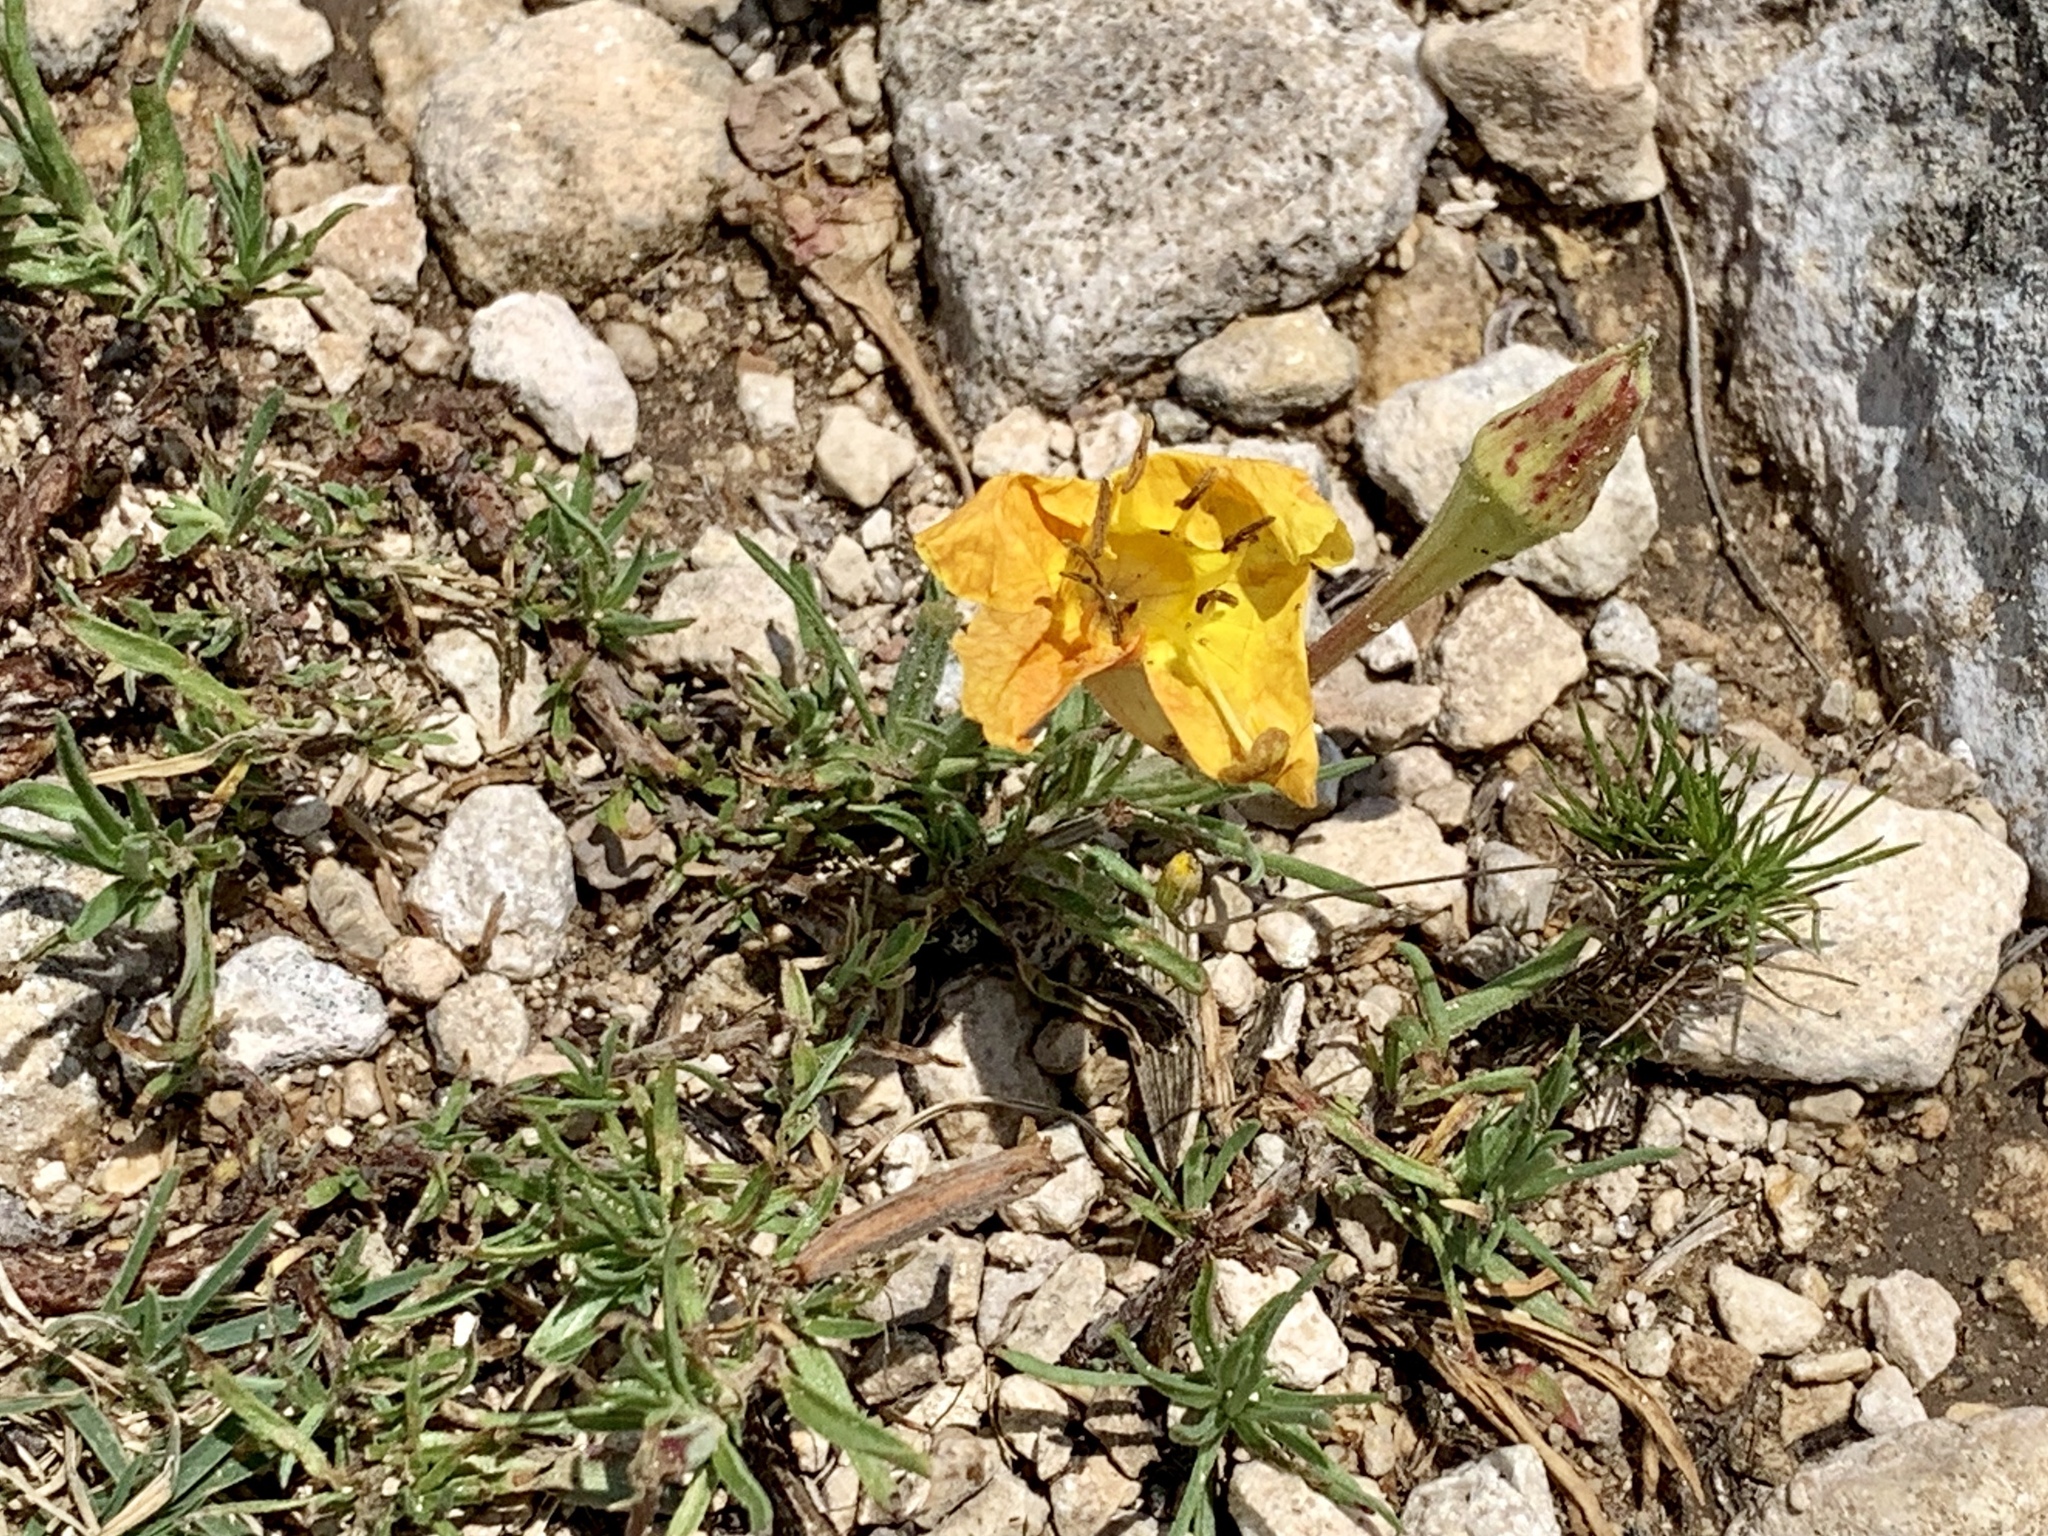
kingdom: Plantae
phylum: Tracheophyta
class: Magnoliopsida
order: Myrtales
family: Onagraceae
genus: Oenothera
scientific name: Oenothera lavandulifolia
